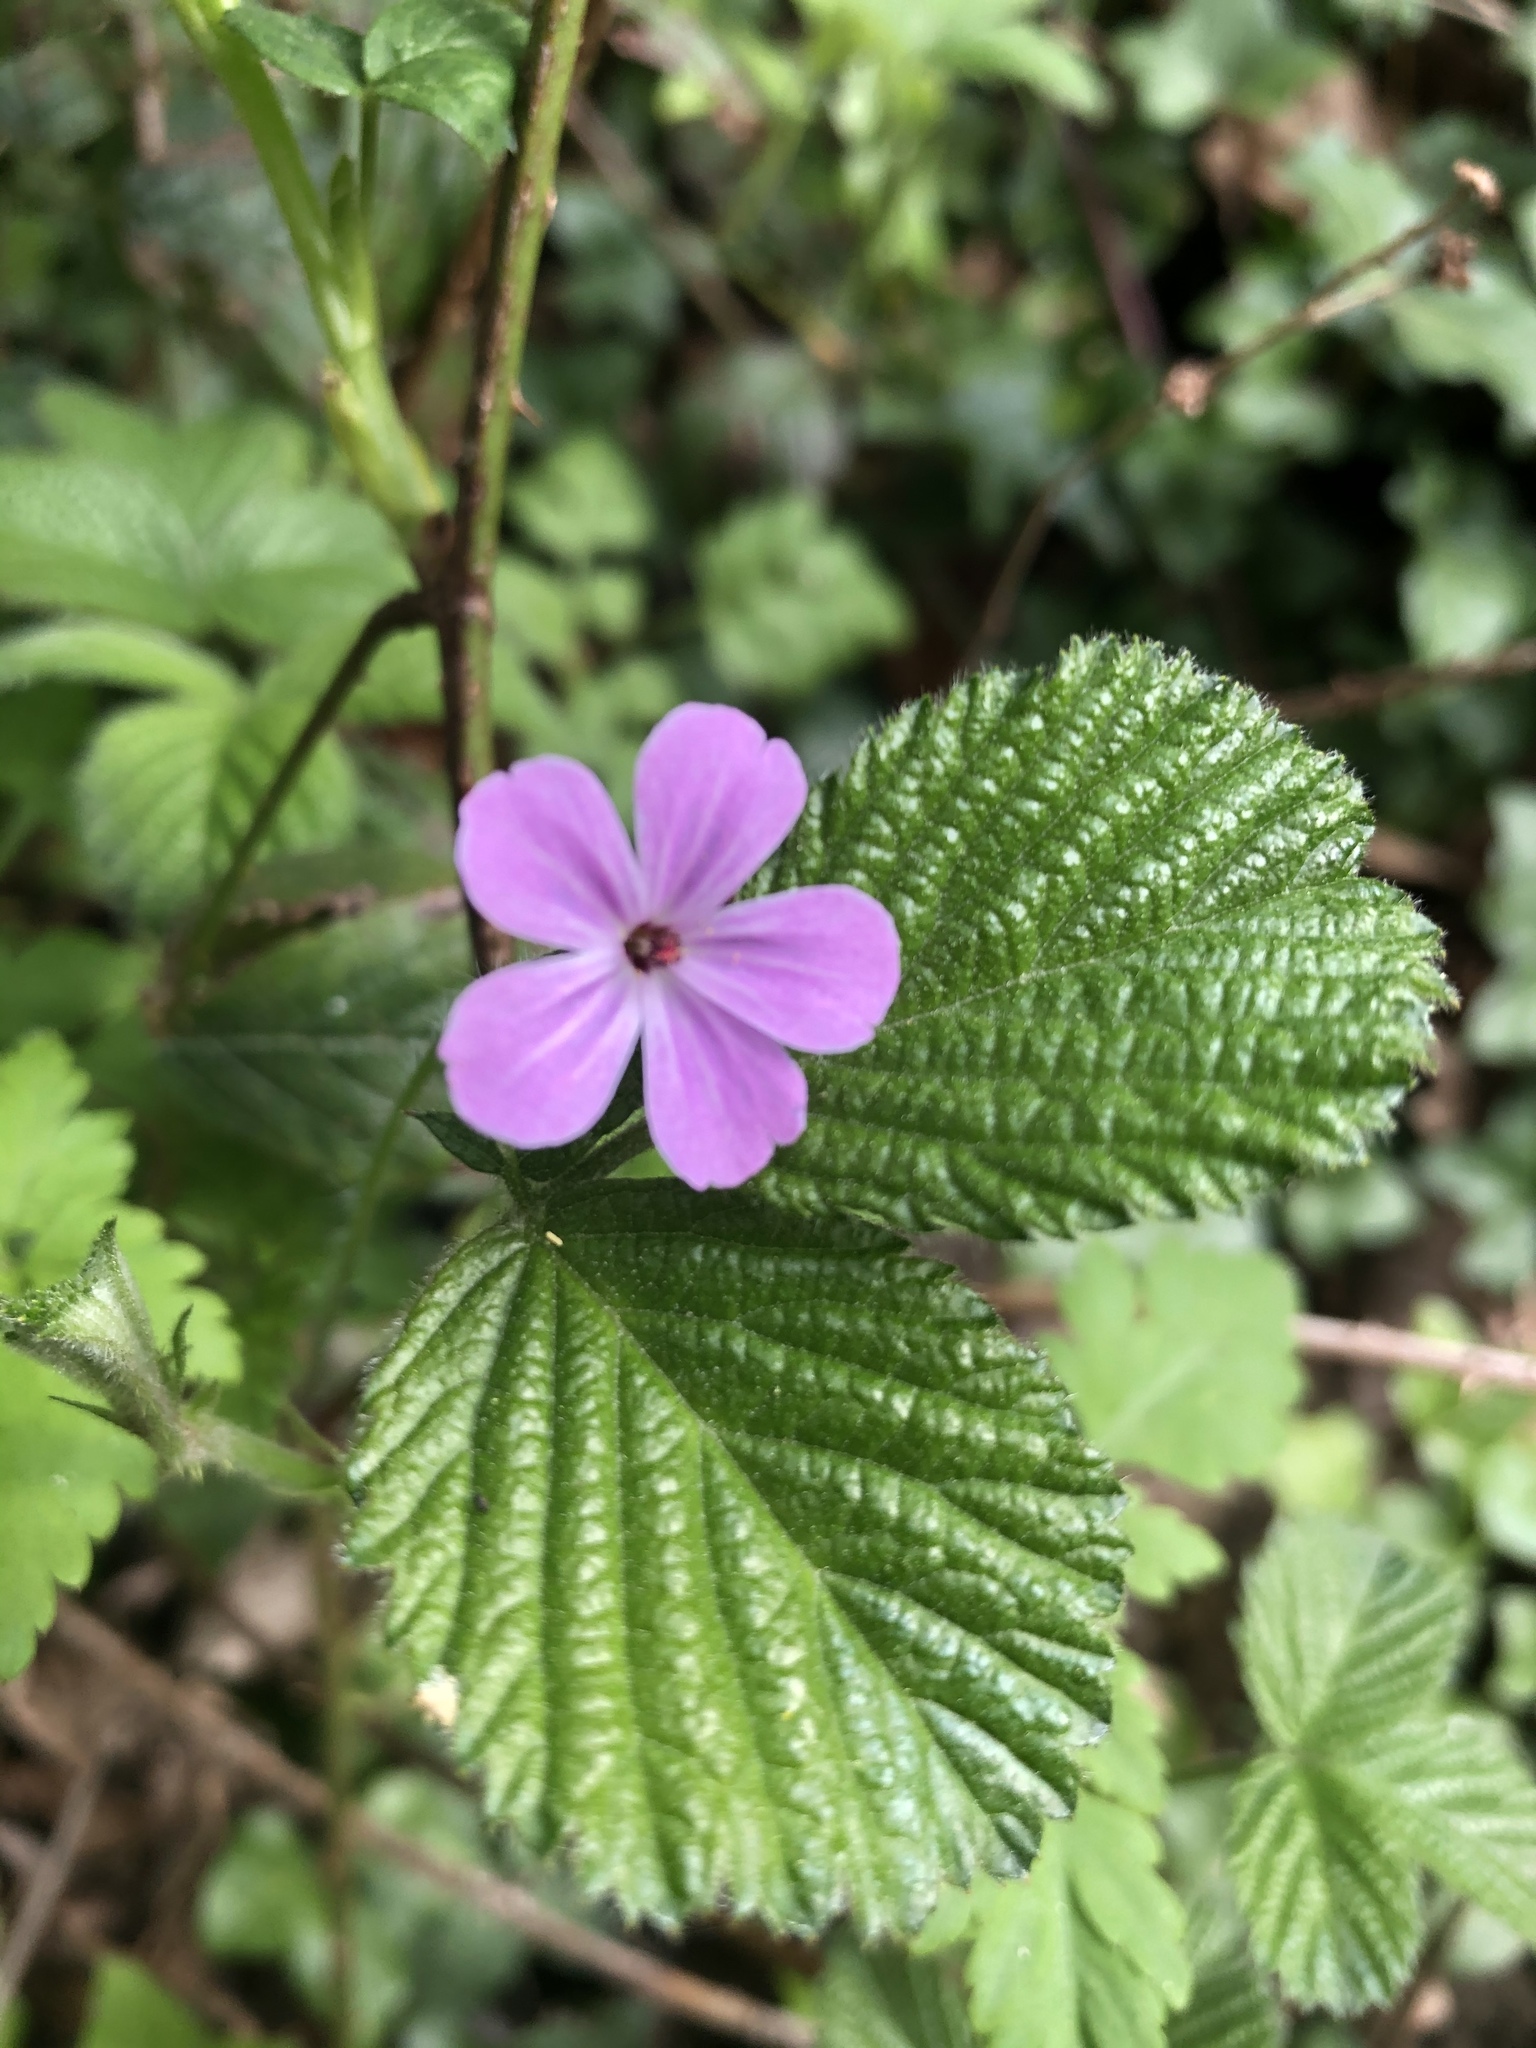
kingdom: Plantae
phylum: Tracheophyta
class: Magnoliopsida
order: Geraniales
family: Geraniaceae
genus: Geranium
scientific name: Geranium robertianum
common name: Herb-robert
